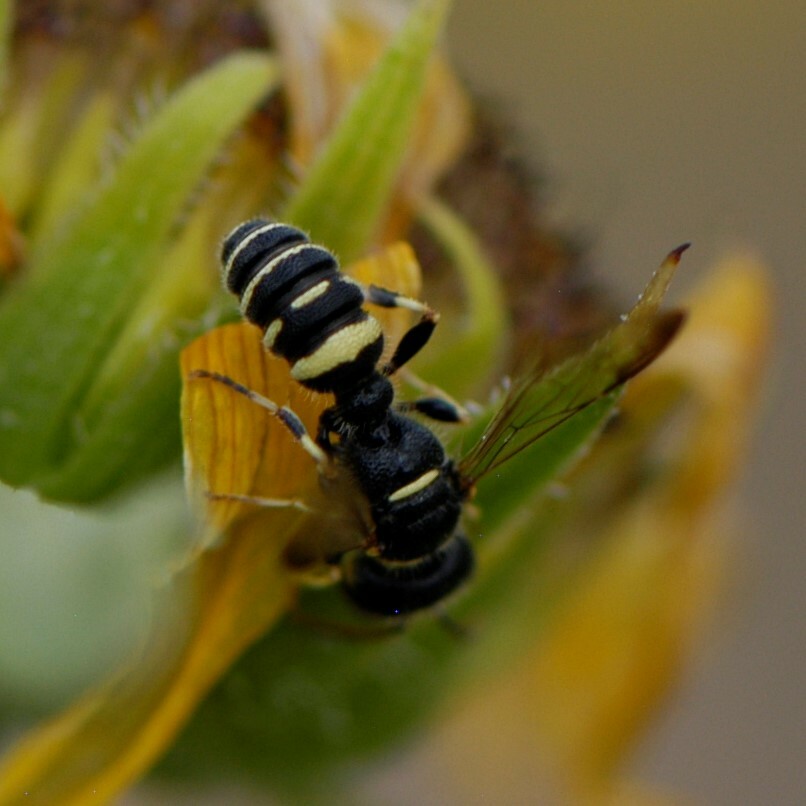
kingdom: Animalia
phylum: Arthropoda
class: Insecta
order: Hymenoptera
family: Crabronidae
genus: Cerceris
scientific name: Cerceris convergens
